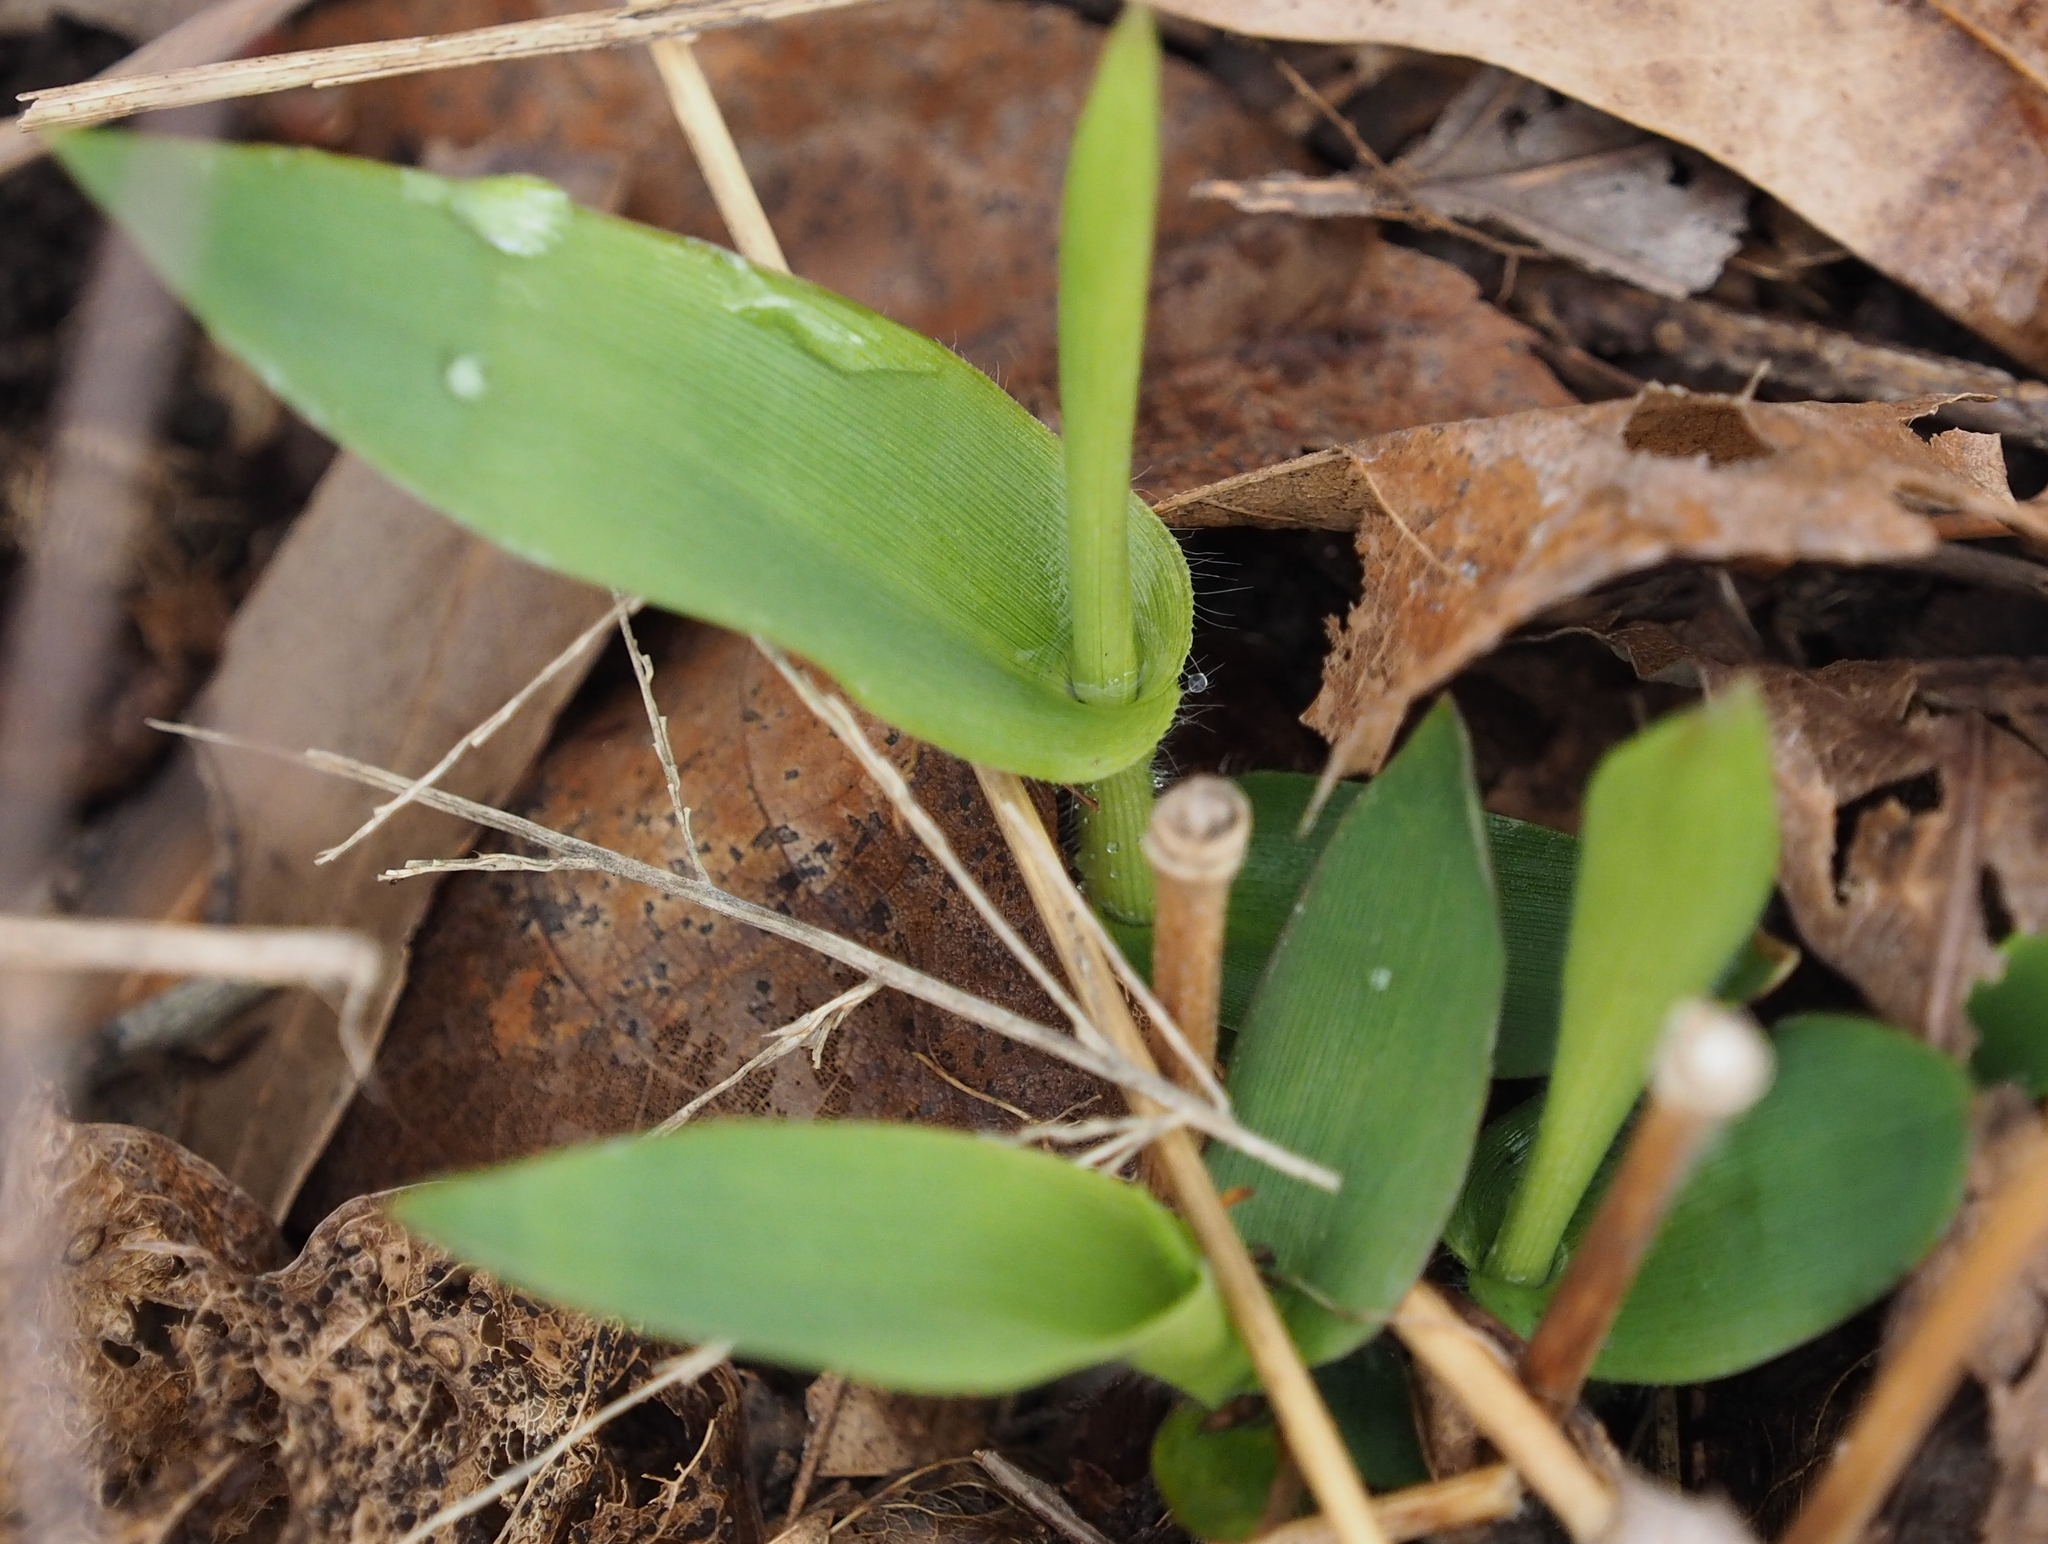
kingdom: Plantae
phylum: Tracheophyta
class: Liliopsida
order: Poales
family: Poaceae
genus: Dichanthelium
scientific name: Dichanthelium clandestinum
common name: Deer-tongue grass
